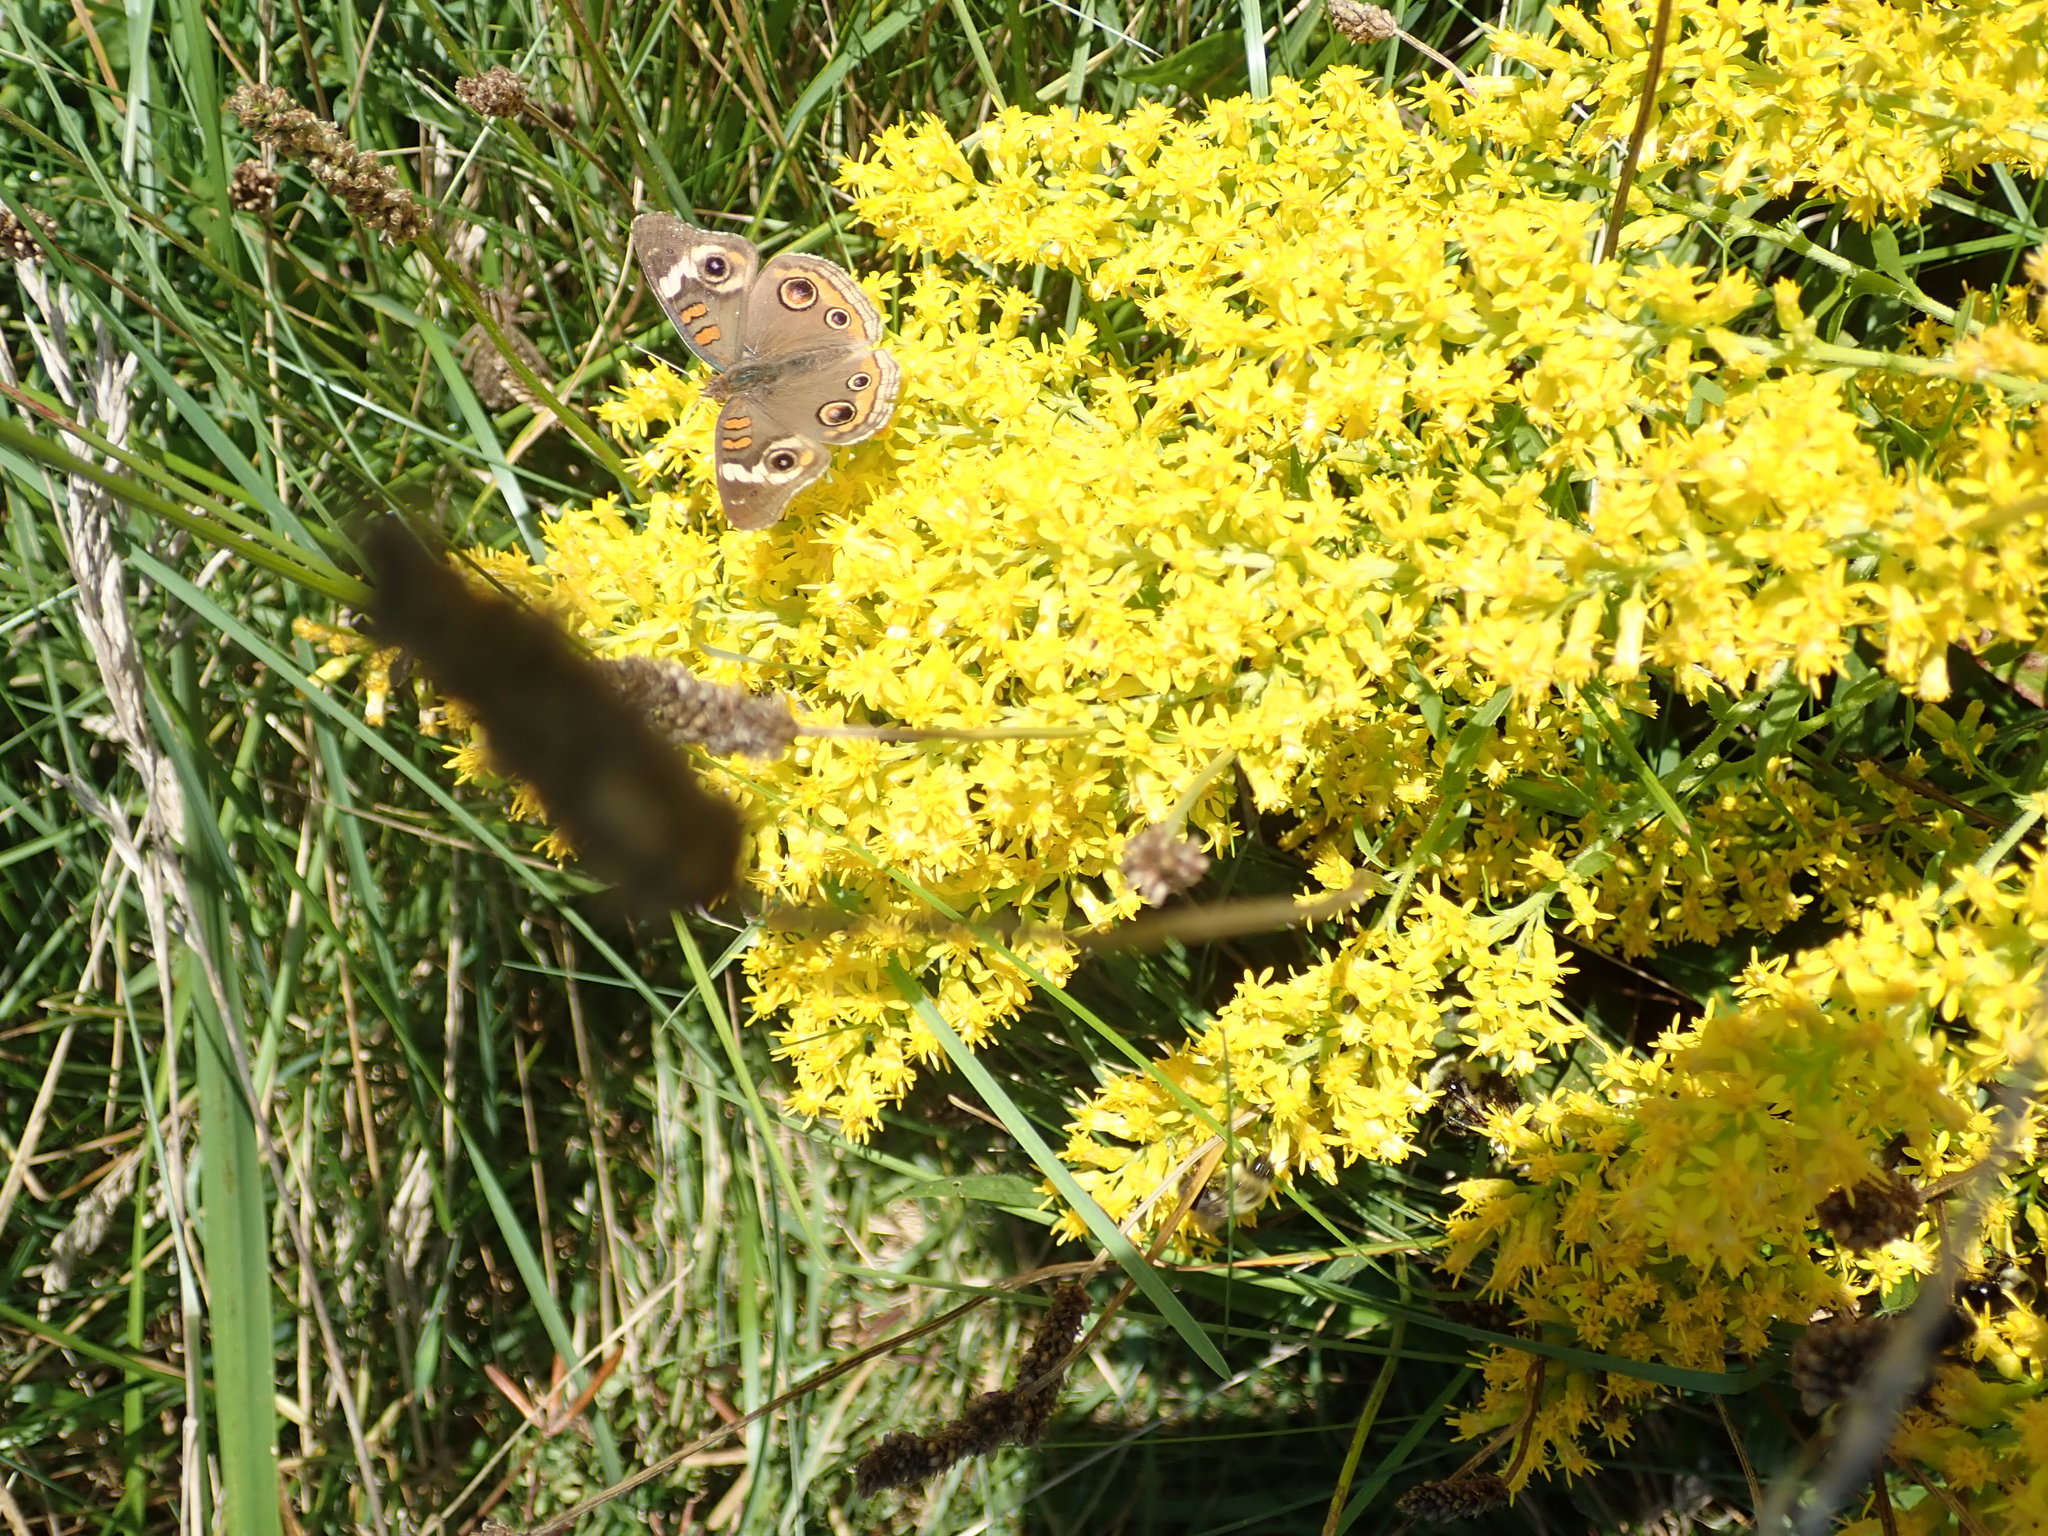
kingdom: Animalia
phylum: Arthropoda
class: Insecta
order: Lepidoptera
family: Nymphalidae
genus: Junonia
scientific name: Junonia coenia
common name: Common buckeye
